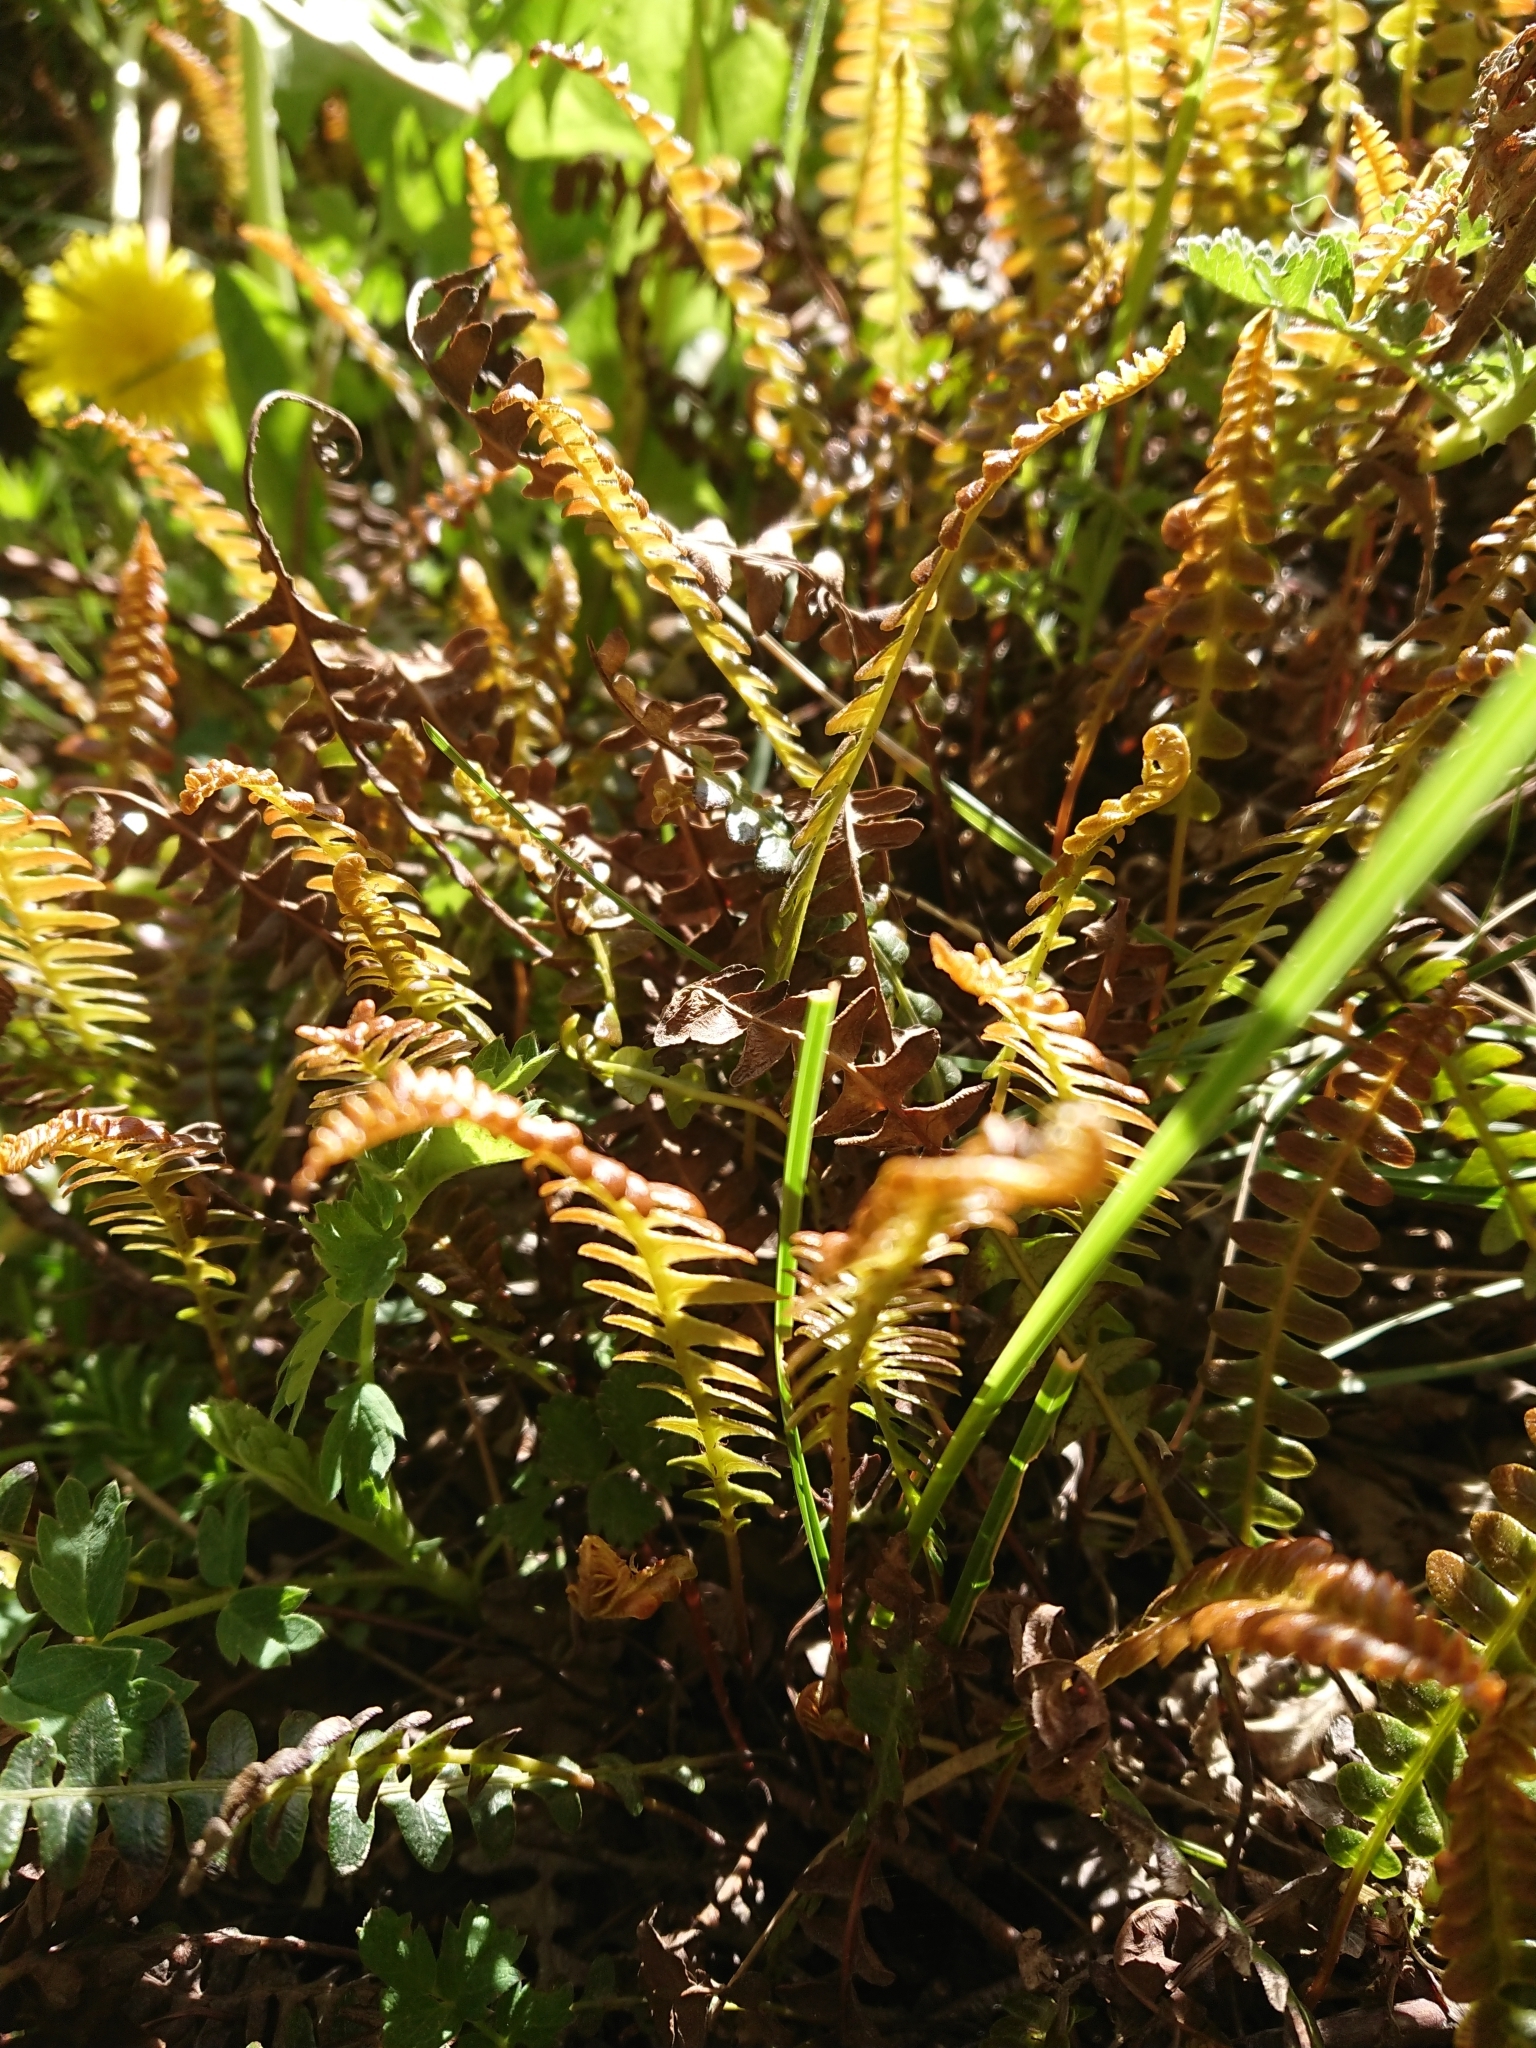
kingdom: Plantae
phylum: Tracheophyta
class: Polypodiopsida
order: Polypodiales
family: Blechnaceae
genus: Austroblechnum
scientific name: Austroblechnum penna-marina
